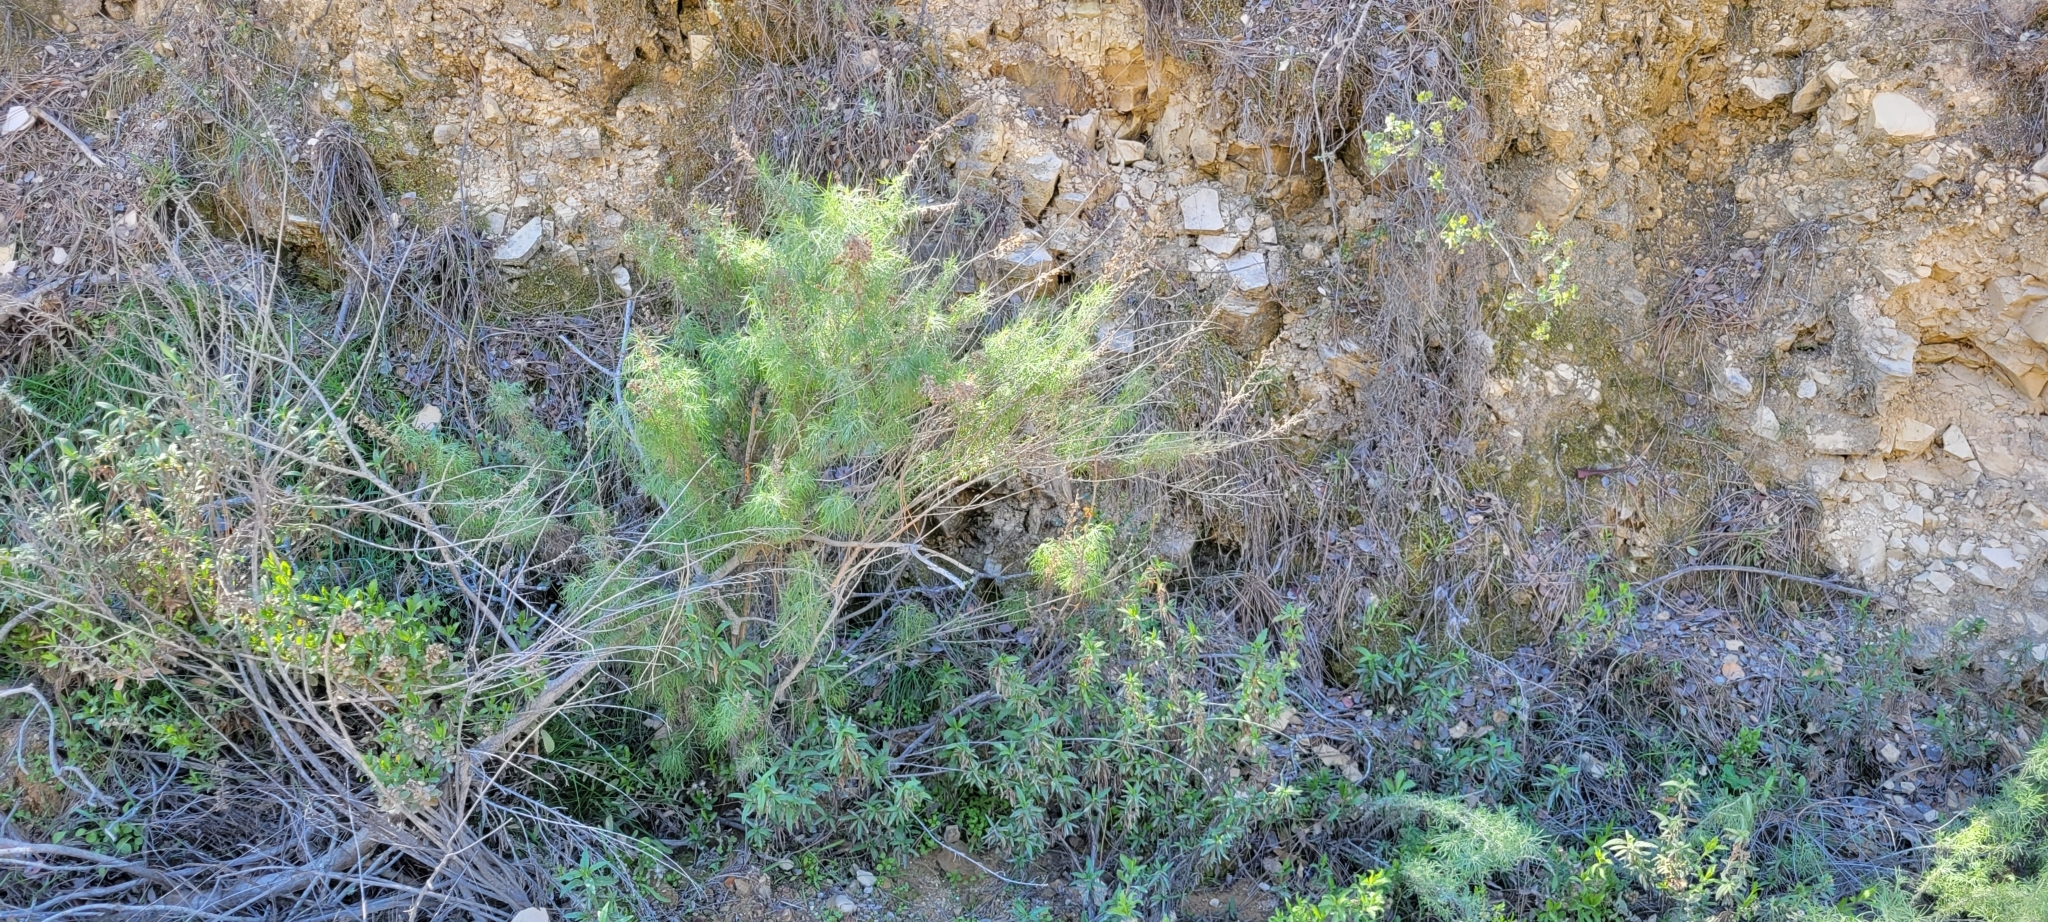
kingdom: Plantae
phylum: Tracheophyta
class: Magnoliopsida
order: Asterales
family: Asteraceae
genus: Artemisia
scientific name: Artemisia californica
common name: California sagebrush
